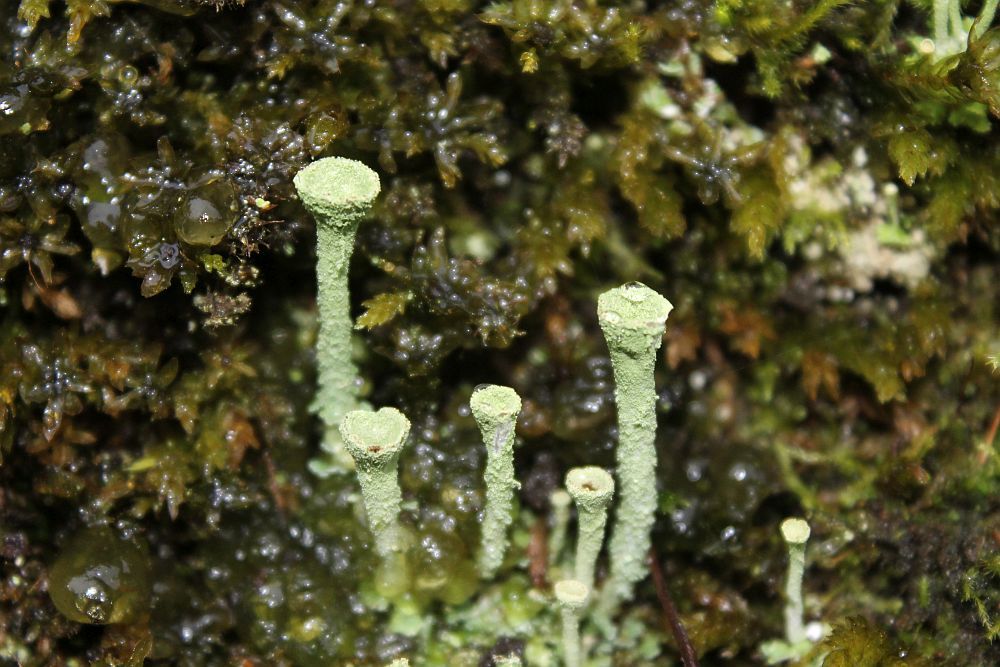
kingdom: Fungi
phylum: Ascomycota
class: Lecanoromycetes
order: Lecanorales
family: Cladoniaceae
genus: Cladonia
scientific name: Cladonia fimbriata
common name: Powdered trumpet lichen
